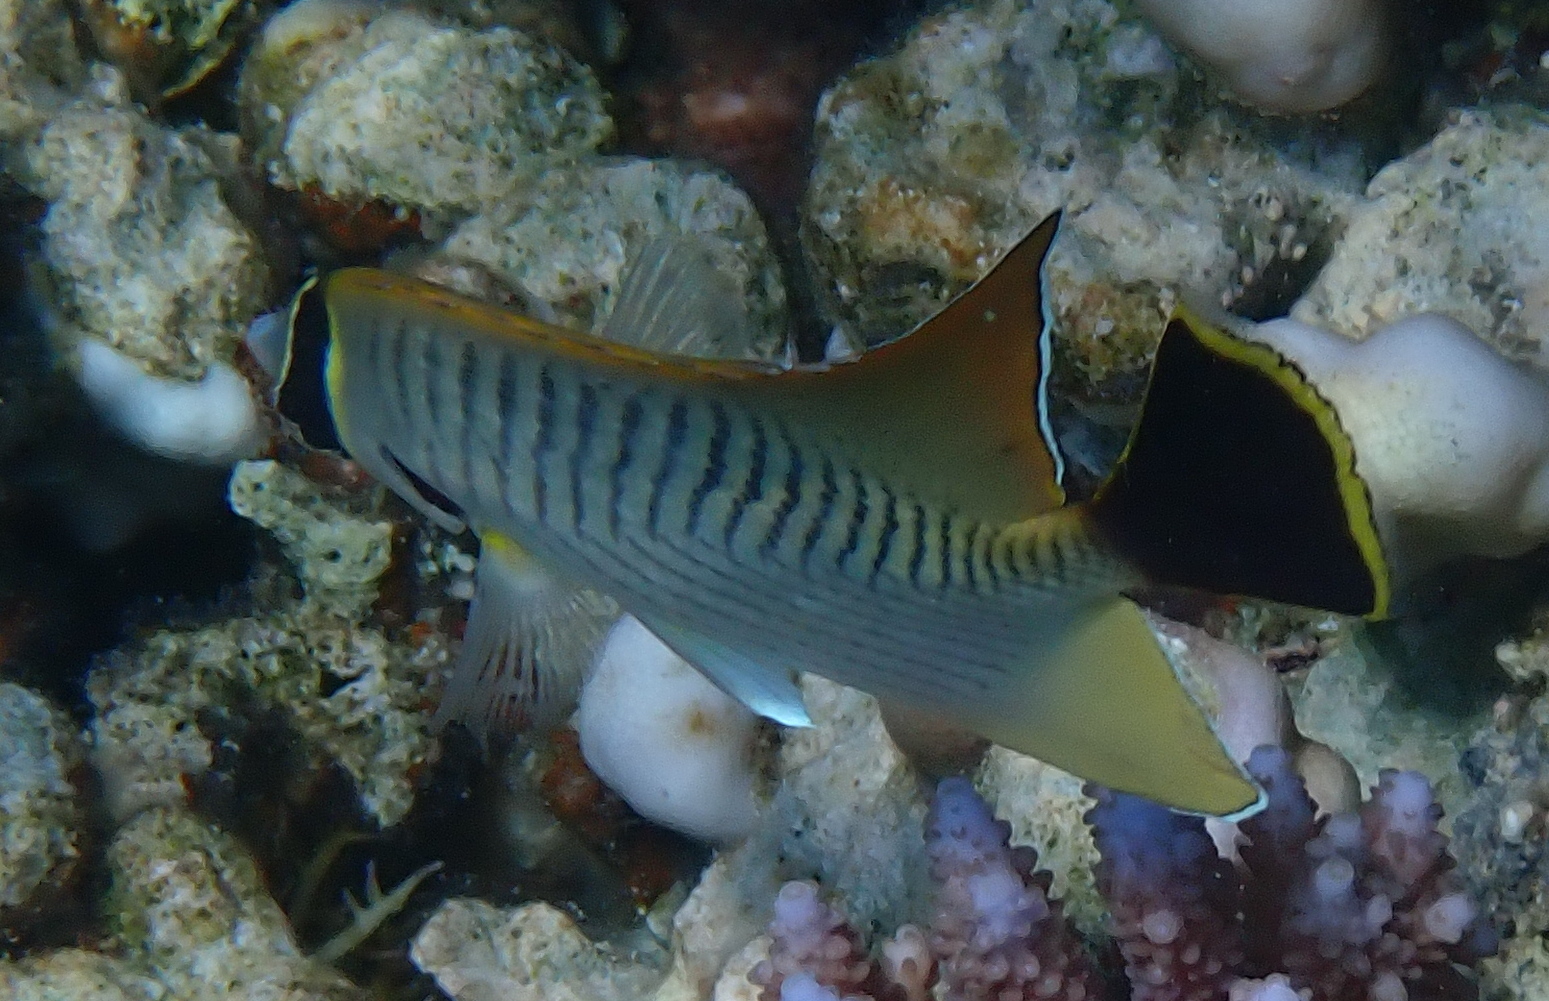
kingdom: Animalia
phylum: Chordata
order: Perciformes
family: Chaetodontidae
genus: Chaetodon
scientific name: Chaetodon trifascialis
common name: Chevroned butterflyfish
